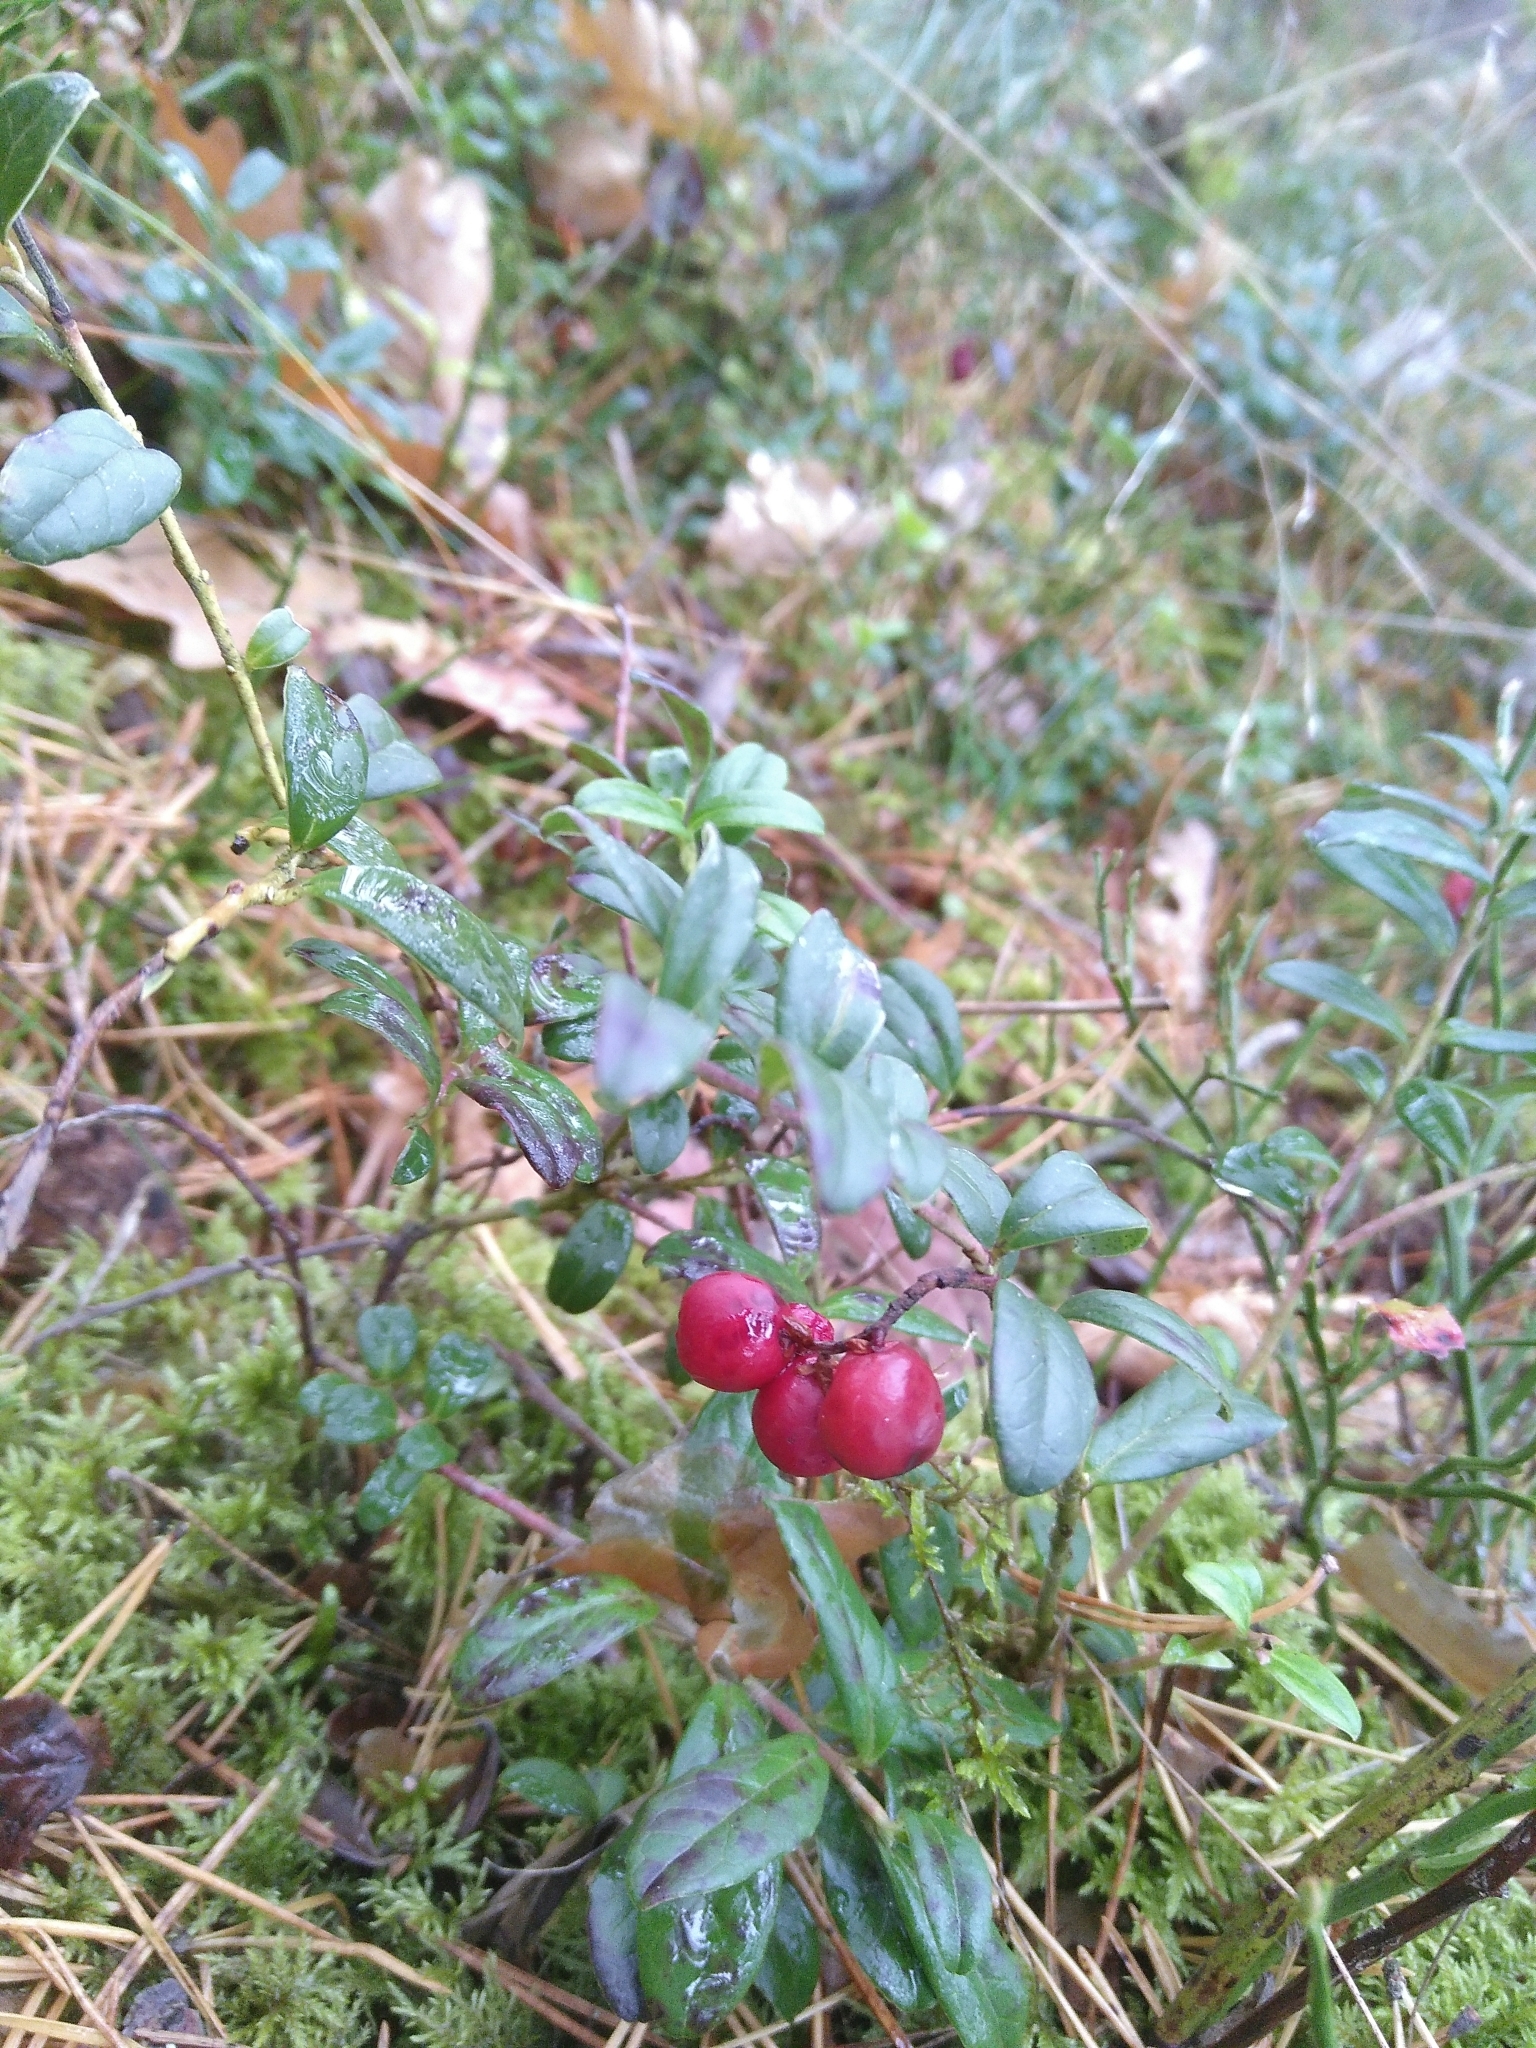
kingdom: Plantae
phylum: Tracheophyta
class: Magnoliopsida
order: Ericales
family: Ericaceae
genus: Vaccinium
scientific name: Vaccinium vitis-idaea
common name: Cowberry
